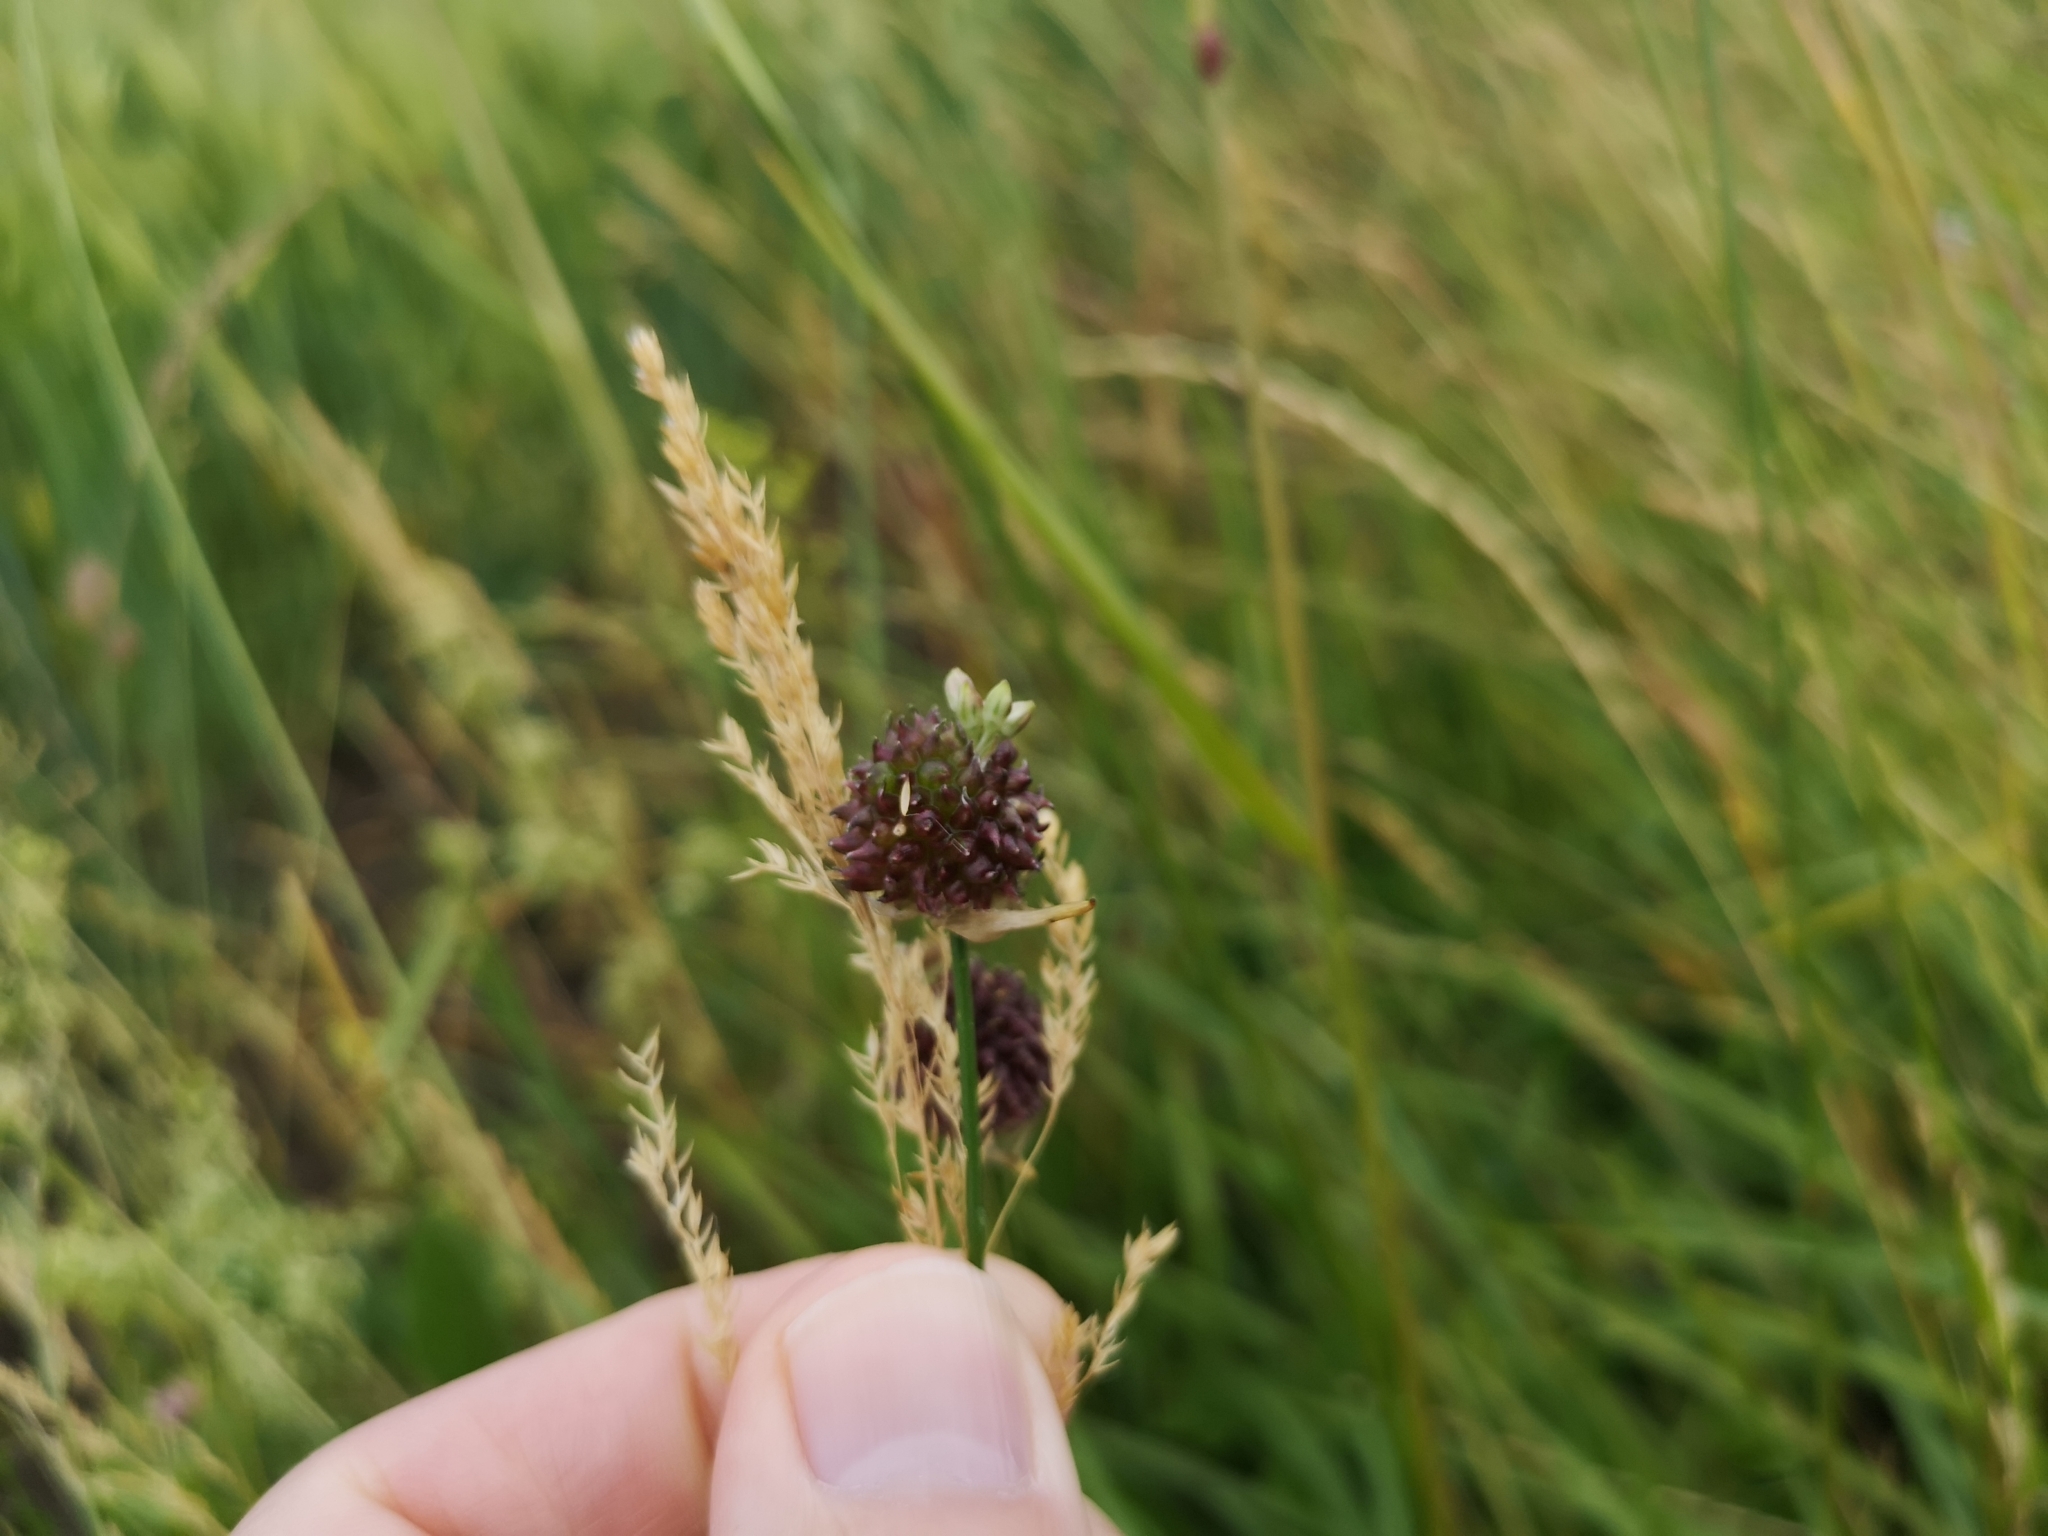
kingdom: Plantae
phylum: Tracheophyta
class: Liliopsida
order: Asparagales
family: Amaryllidaceae
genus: Allium
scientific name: Allium vineale
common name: Crow garlic
